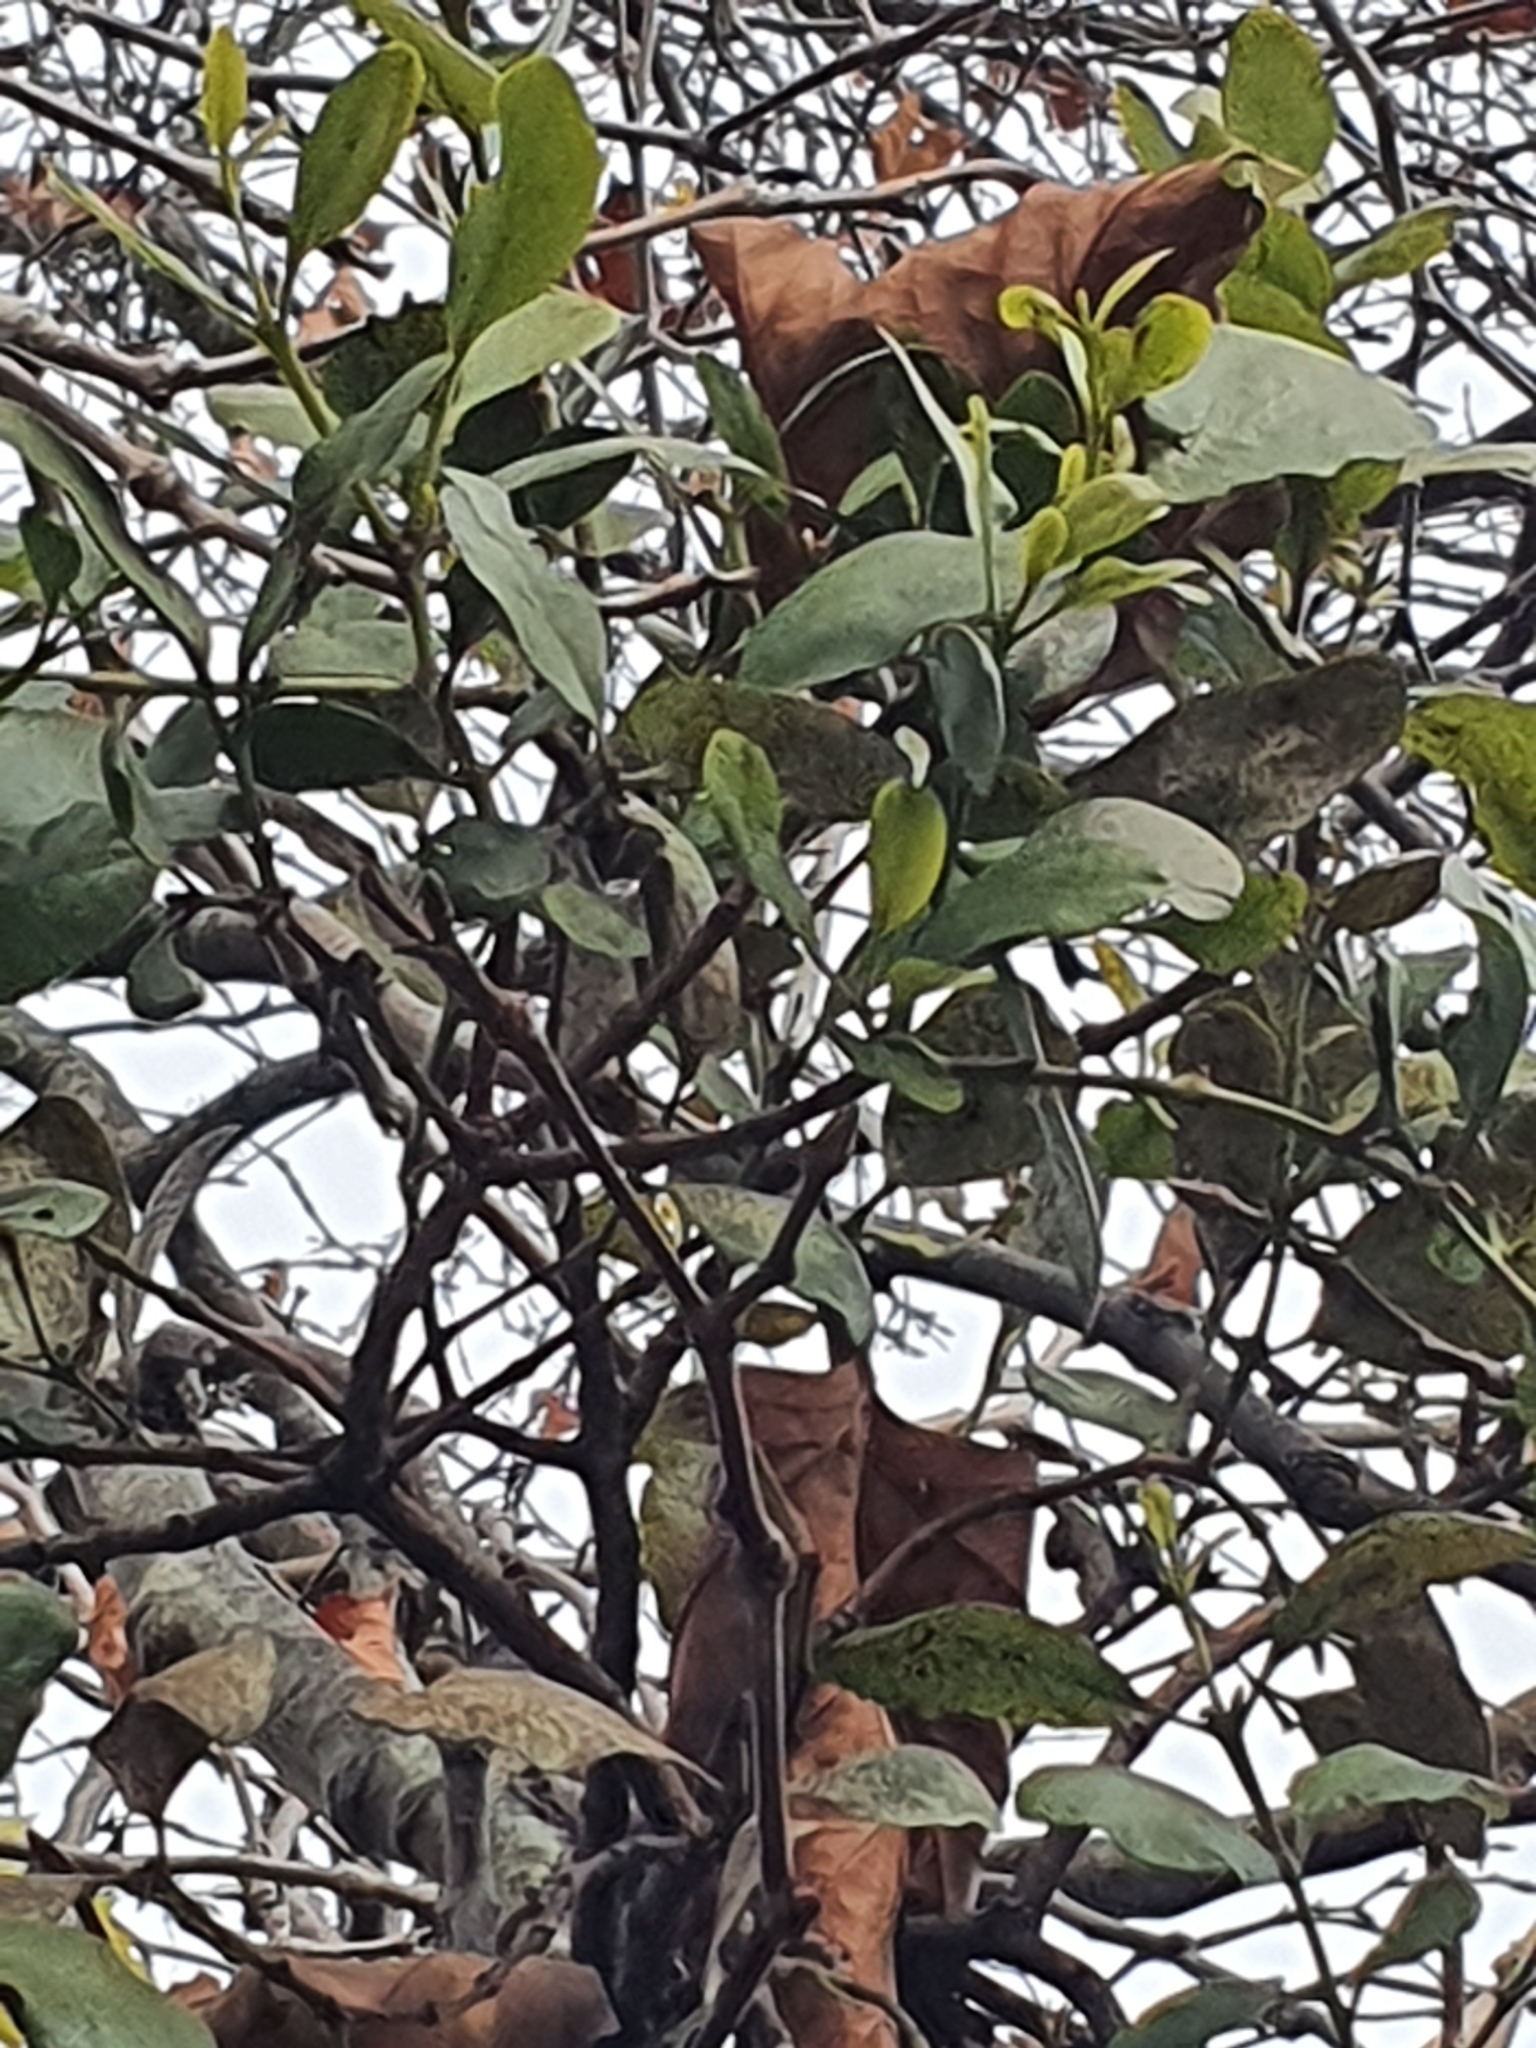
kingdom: Plantae
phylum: Tracheophyta
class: Magnoliopsida
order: Santalales
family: Loranthaceae
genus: Ileostylus
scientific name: Ileostylus micranthus
